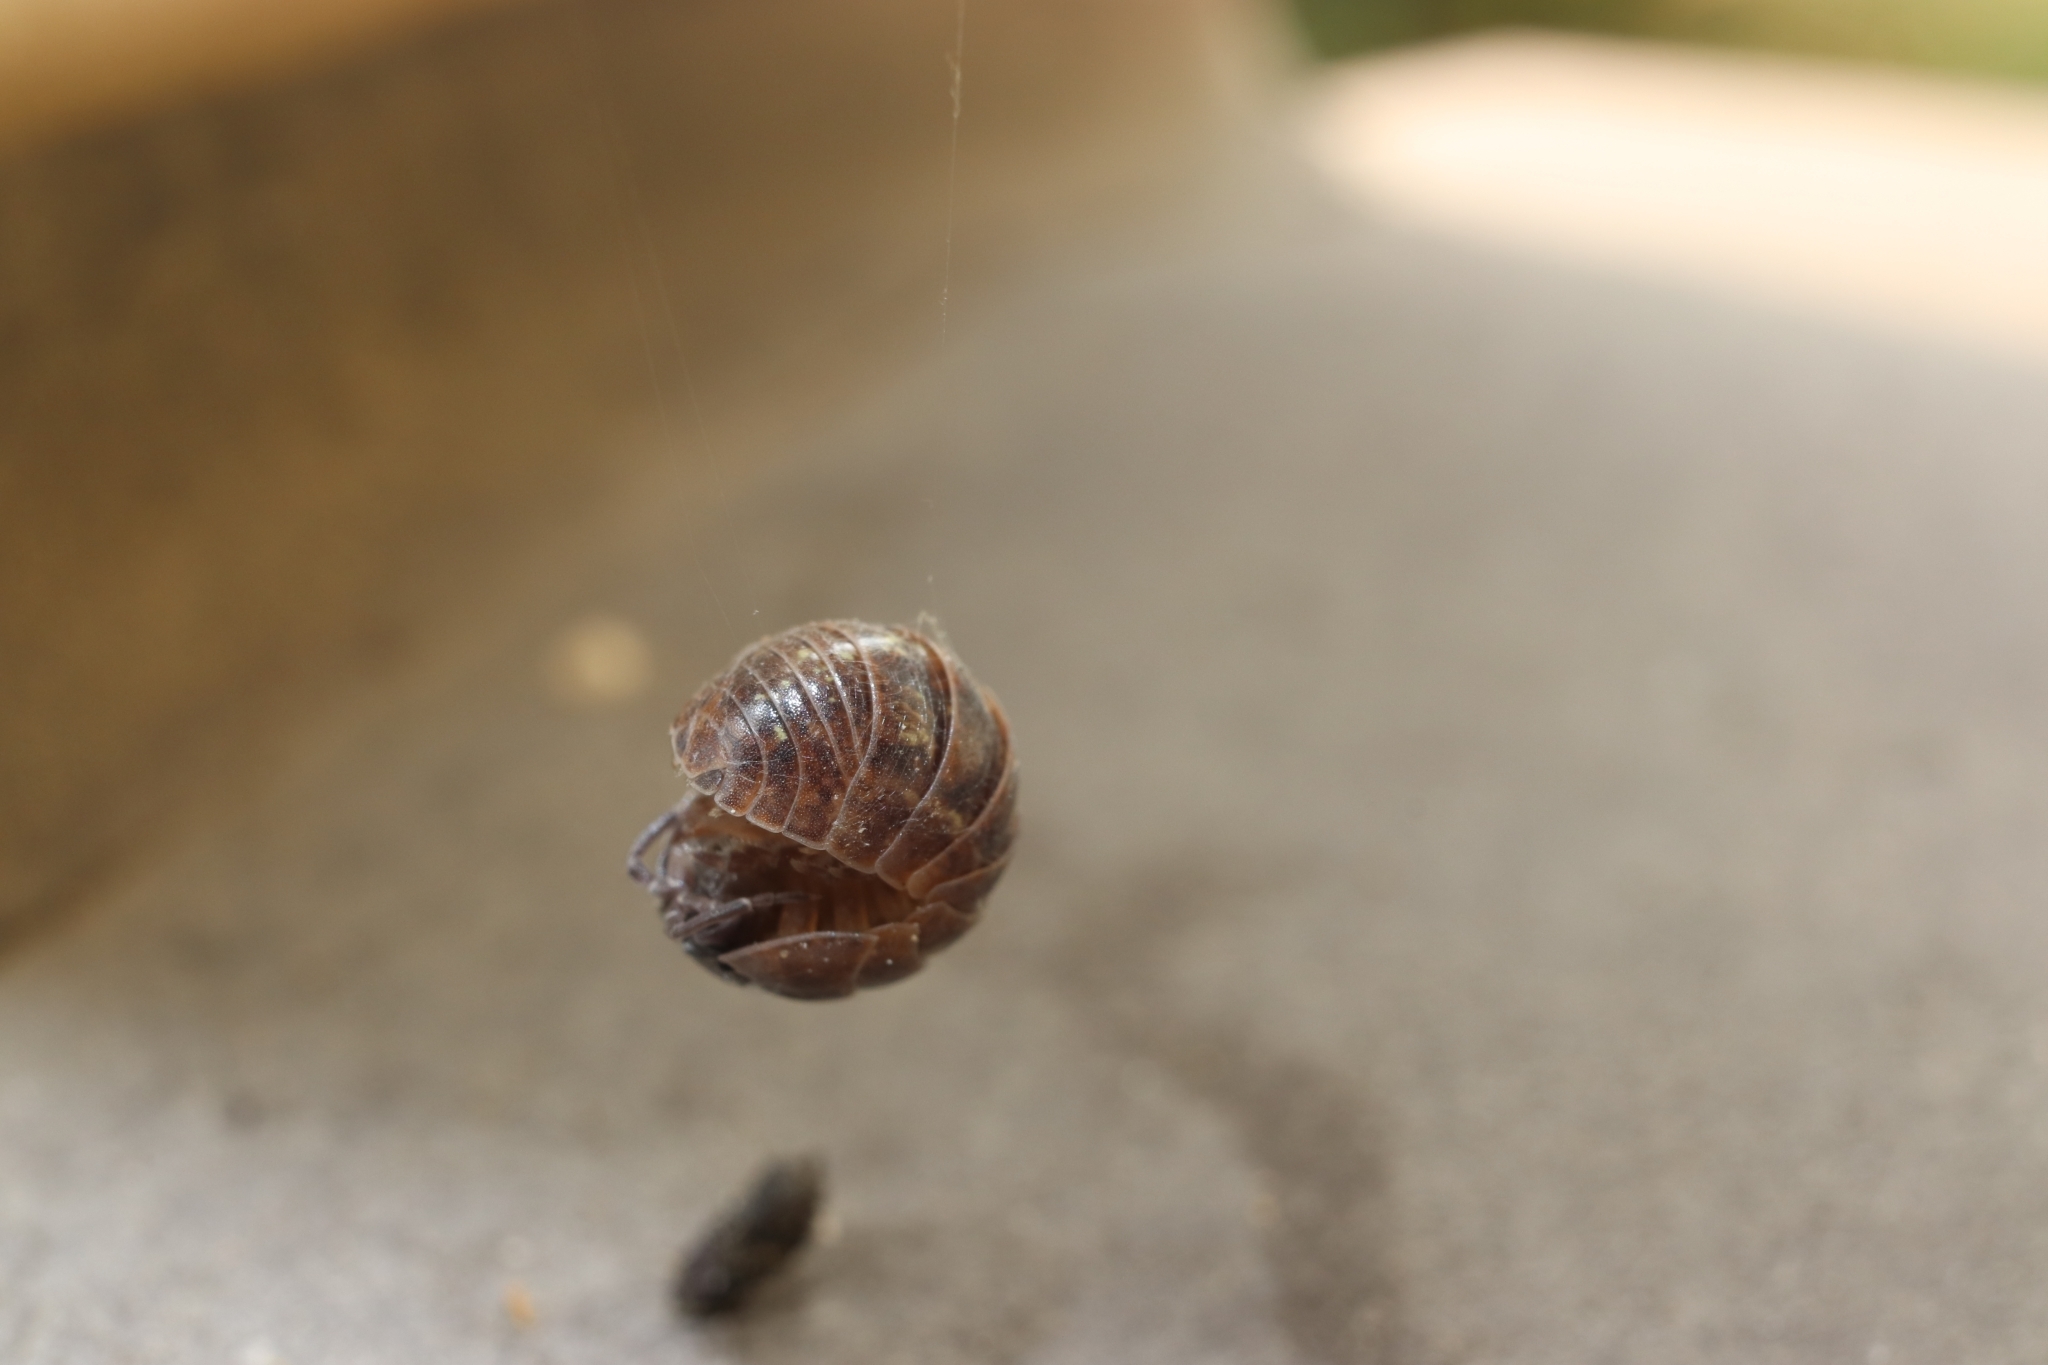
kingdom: Animalia
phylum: Arthropoda
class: Malacostraca
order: Isopoda
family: Armadillidiidae
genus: Armadillidium
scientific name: Armadillidium vulgare
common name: Common pill woodlouse
